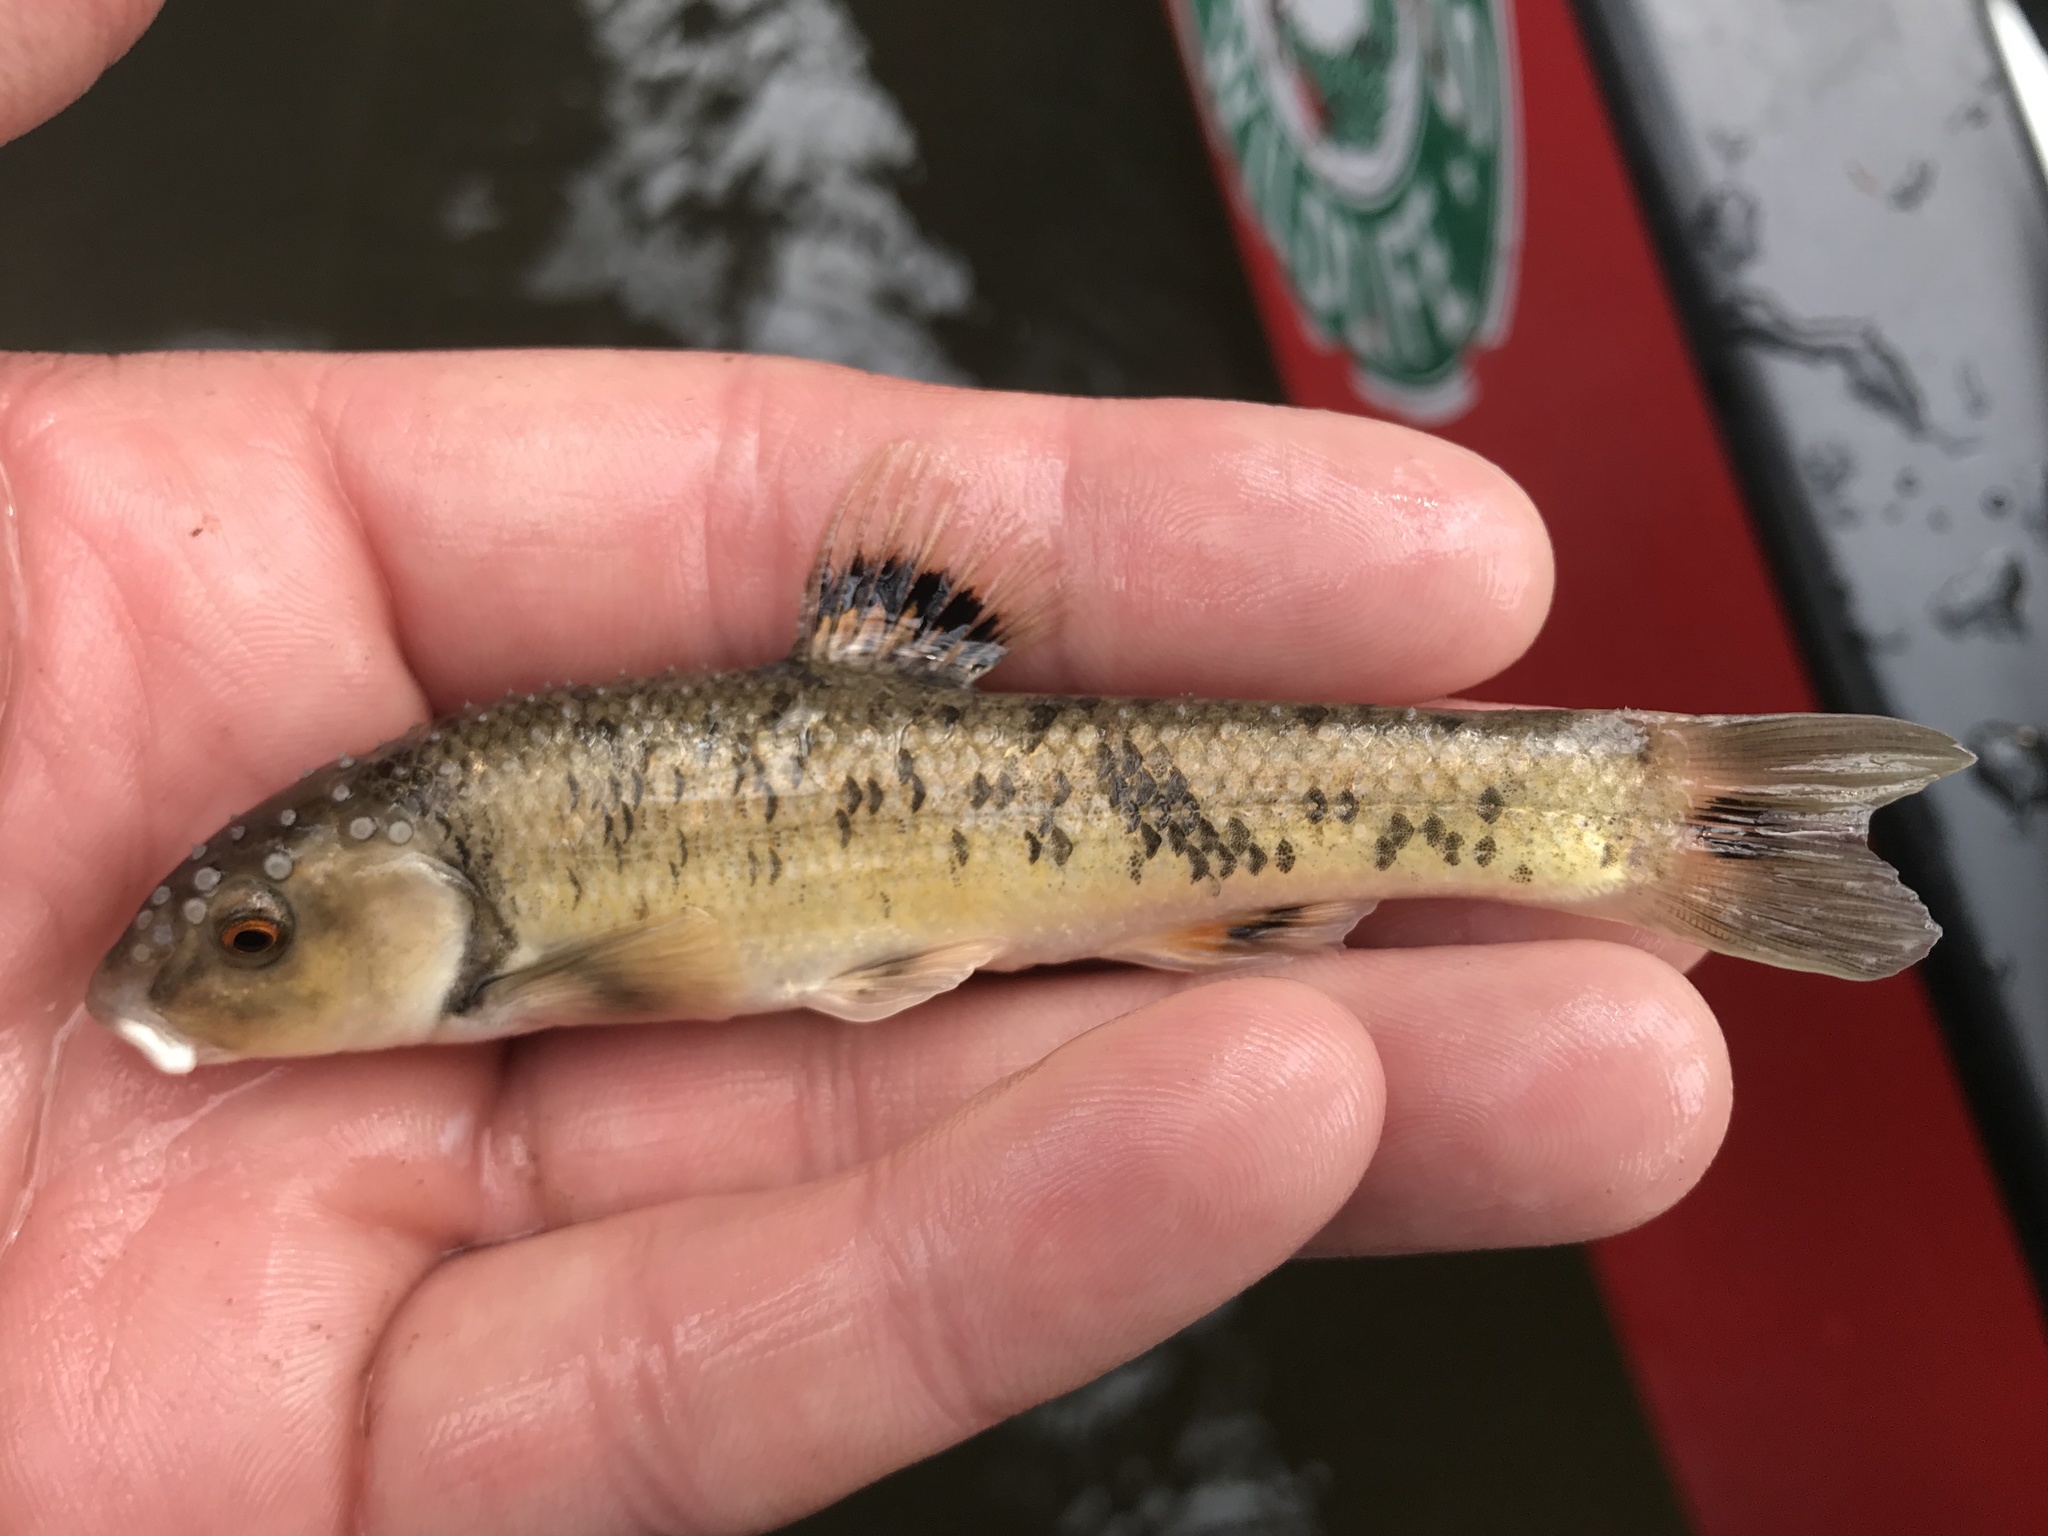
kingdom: Animalia
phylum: Chordata
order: Cypriniformes
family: Cyprinidae
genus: Campostoma
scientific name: Campostoma anomalum
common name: Central stoneroller
